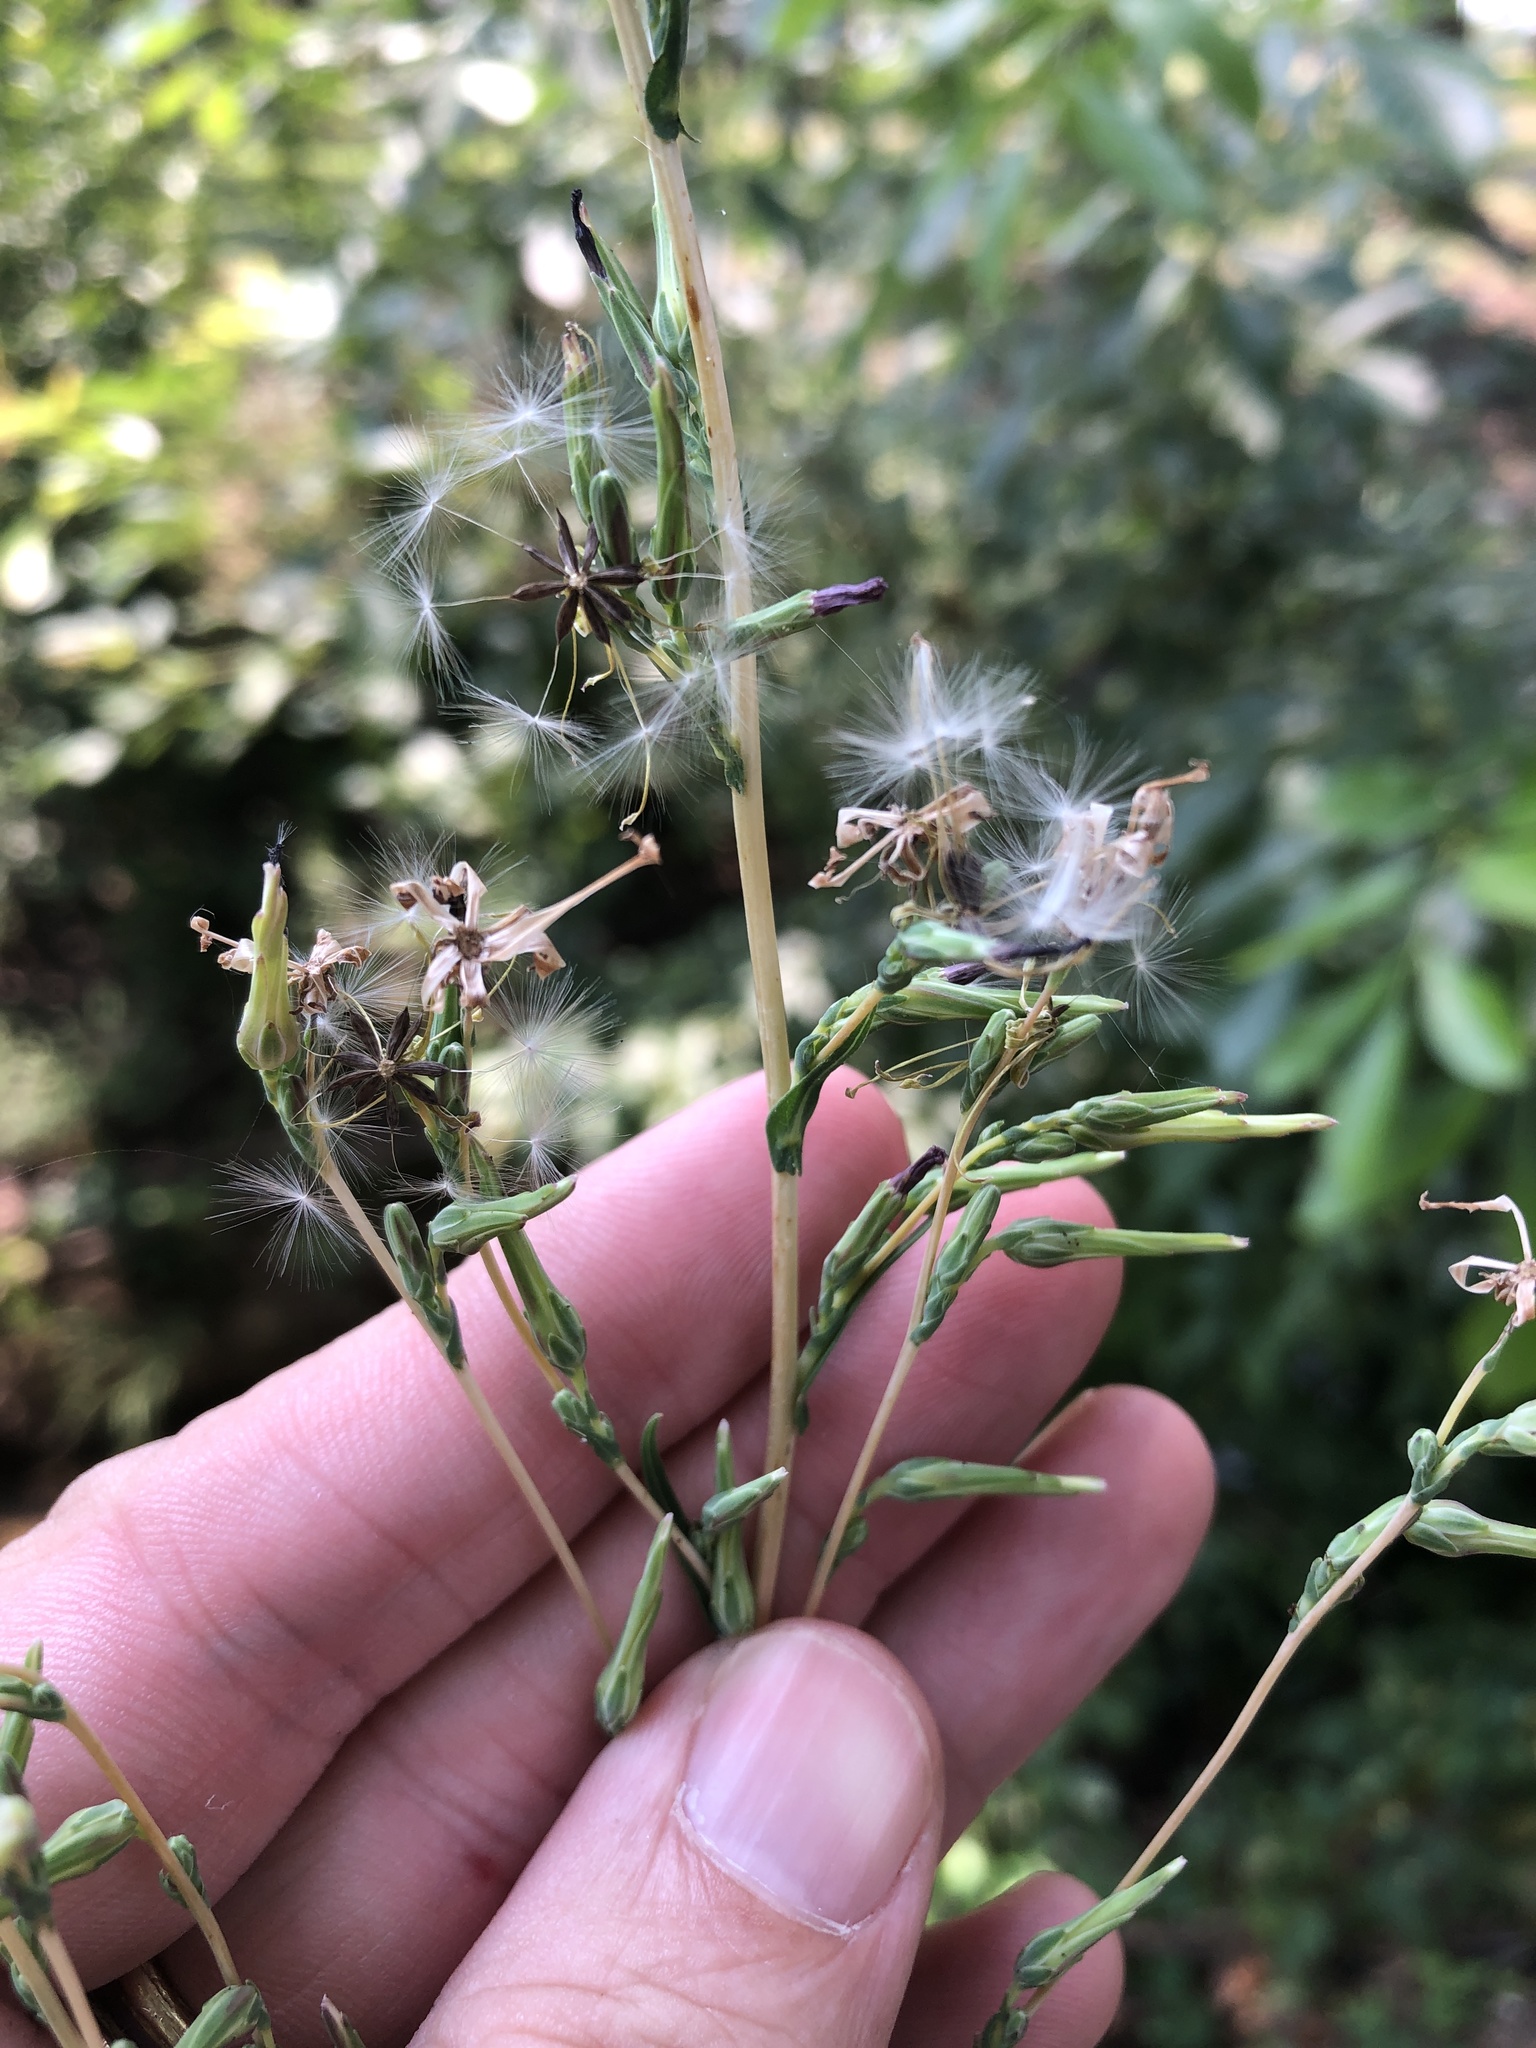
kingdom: Plantae
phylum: Tracheophyta
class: Magnoliopsida
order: Asterales
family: Asteraceae
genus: Lactuca
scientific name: Lactuca saligna
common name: Wild lettuce
